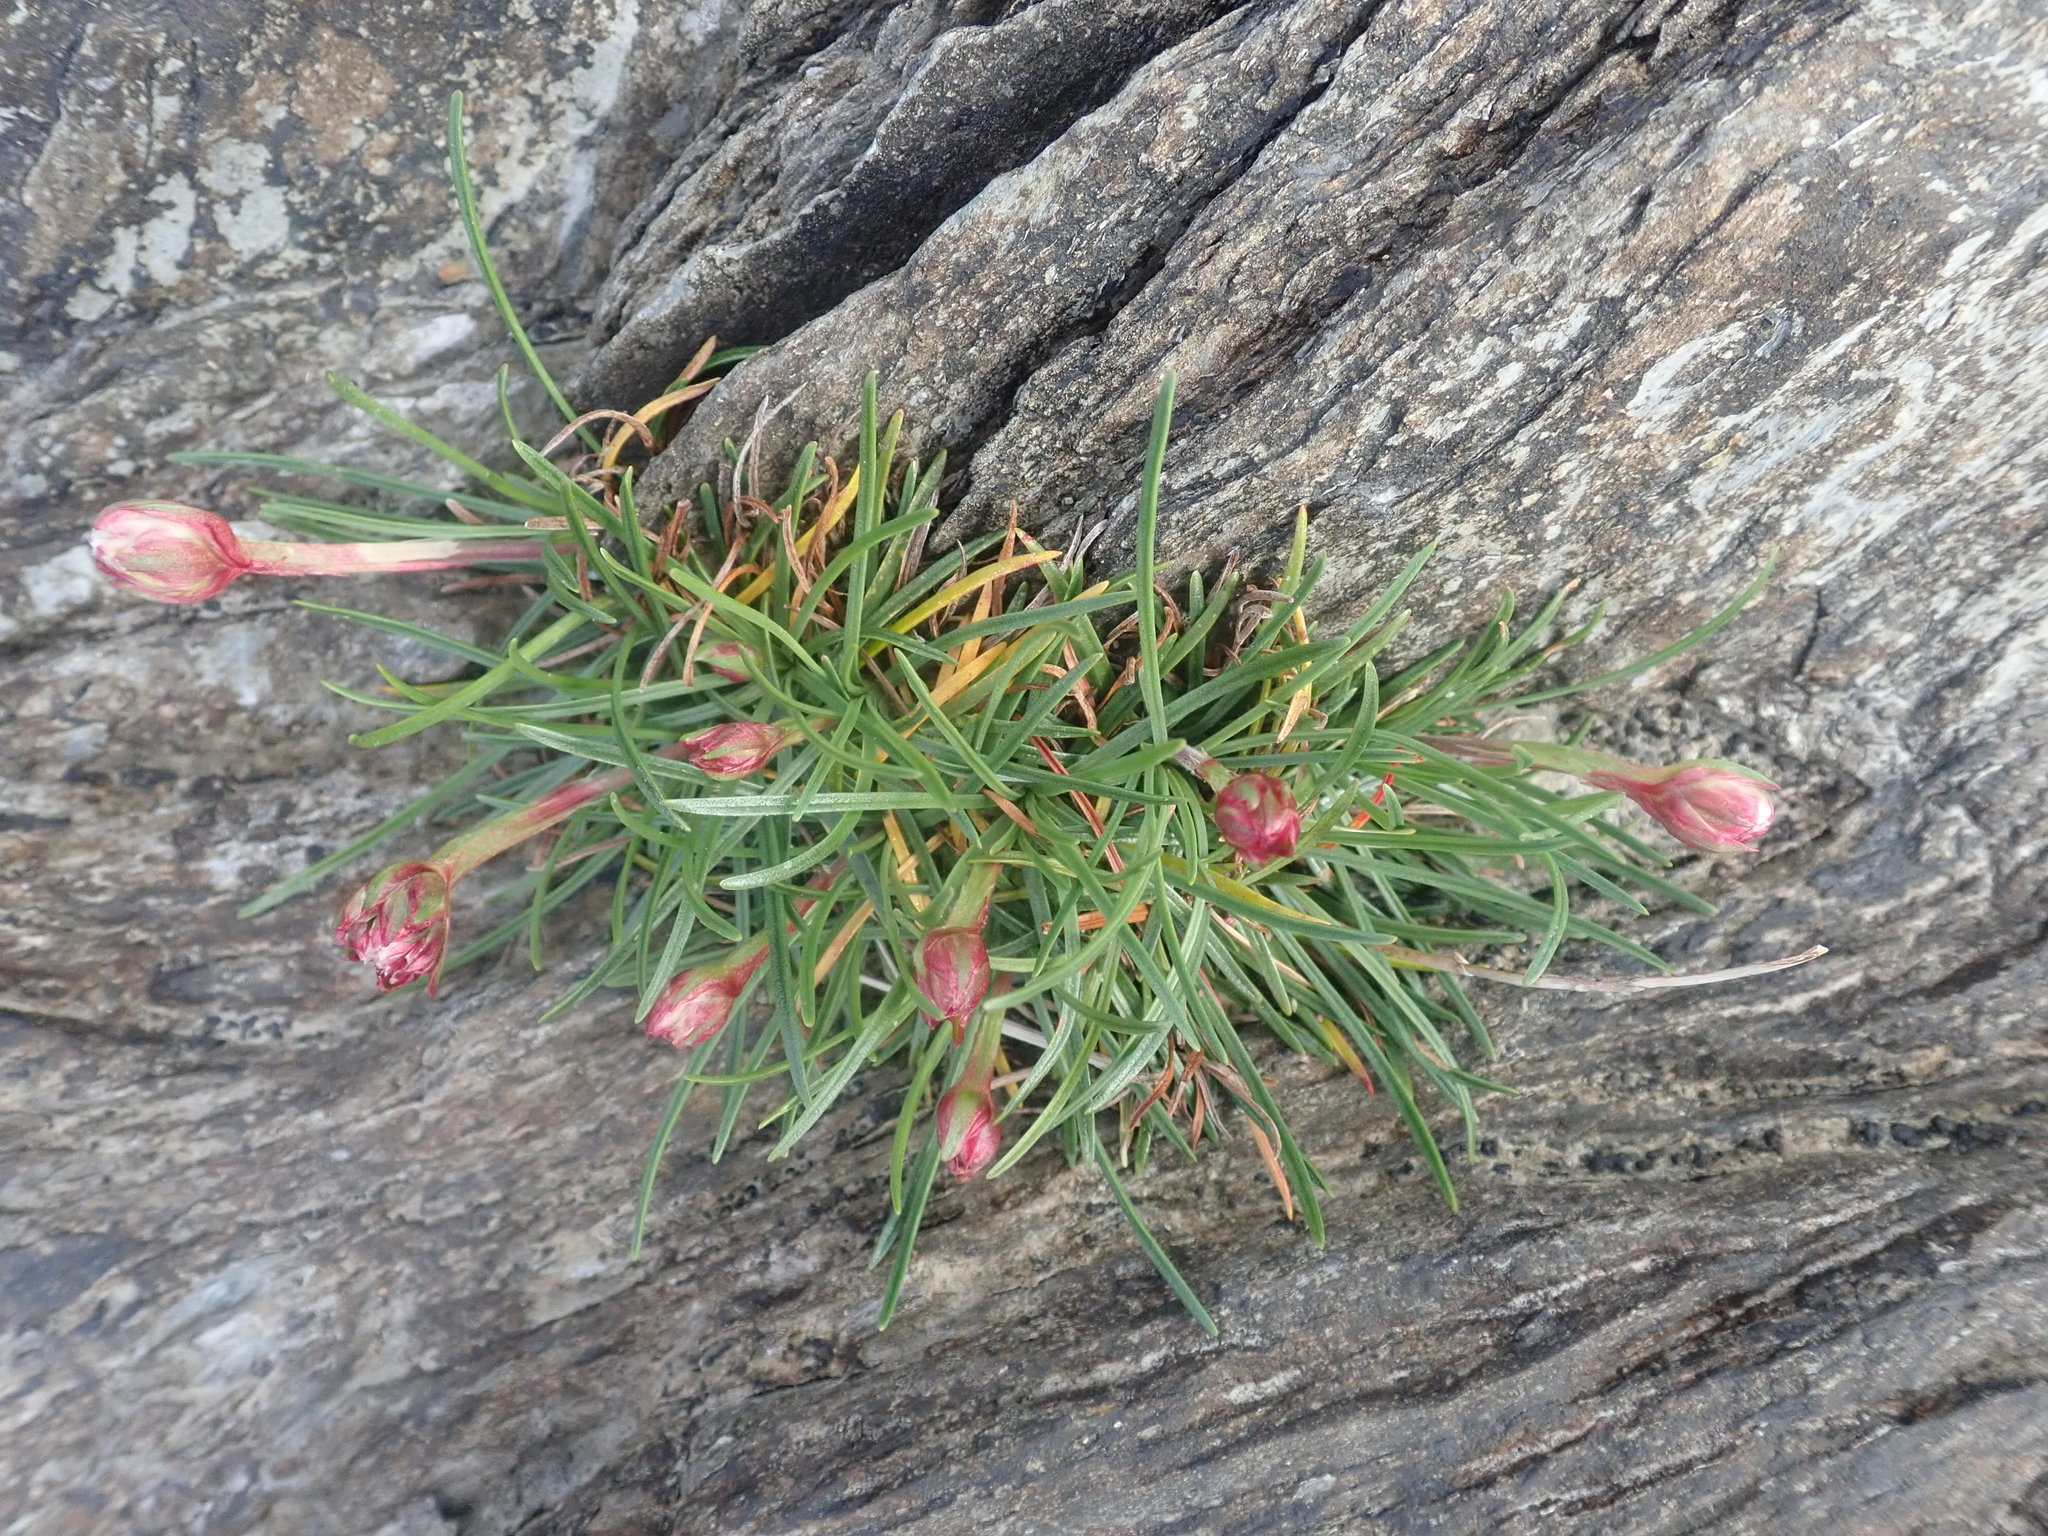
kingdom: Plantae
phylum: Tracheophyta
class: Magnoliopsida
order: Caryophyllales
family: Plumbaginaceae
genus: Armeria
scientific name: Armeria maritima
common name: Thrift
